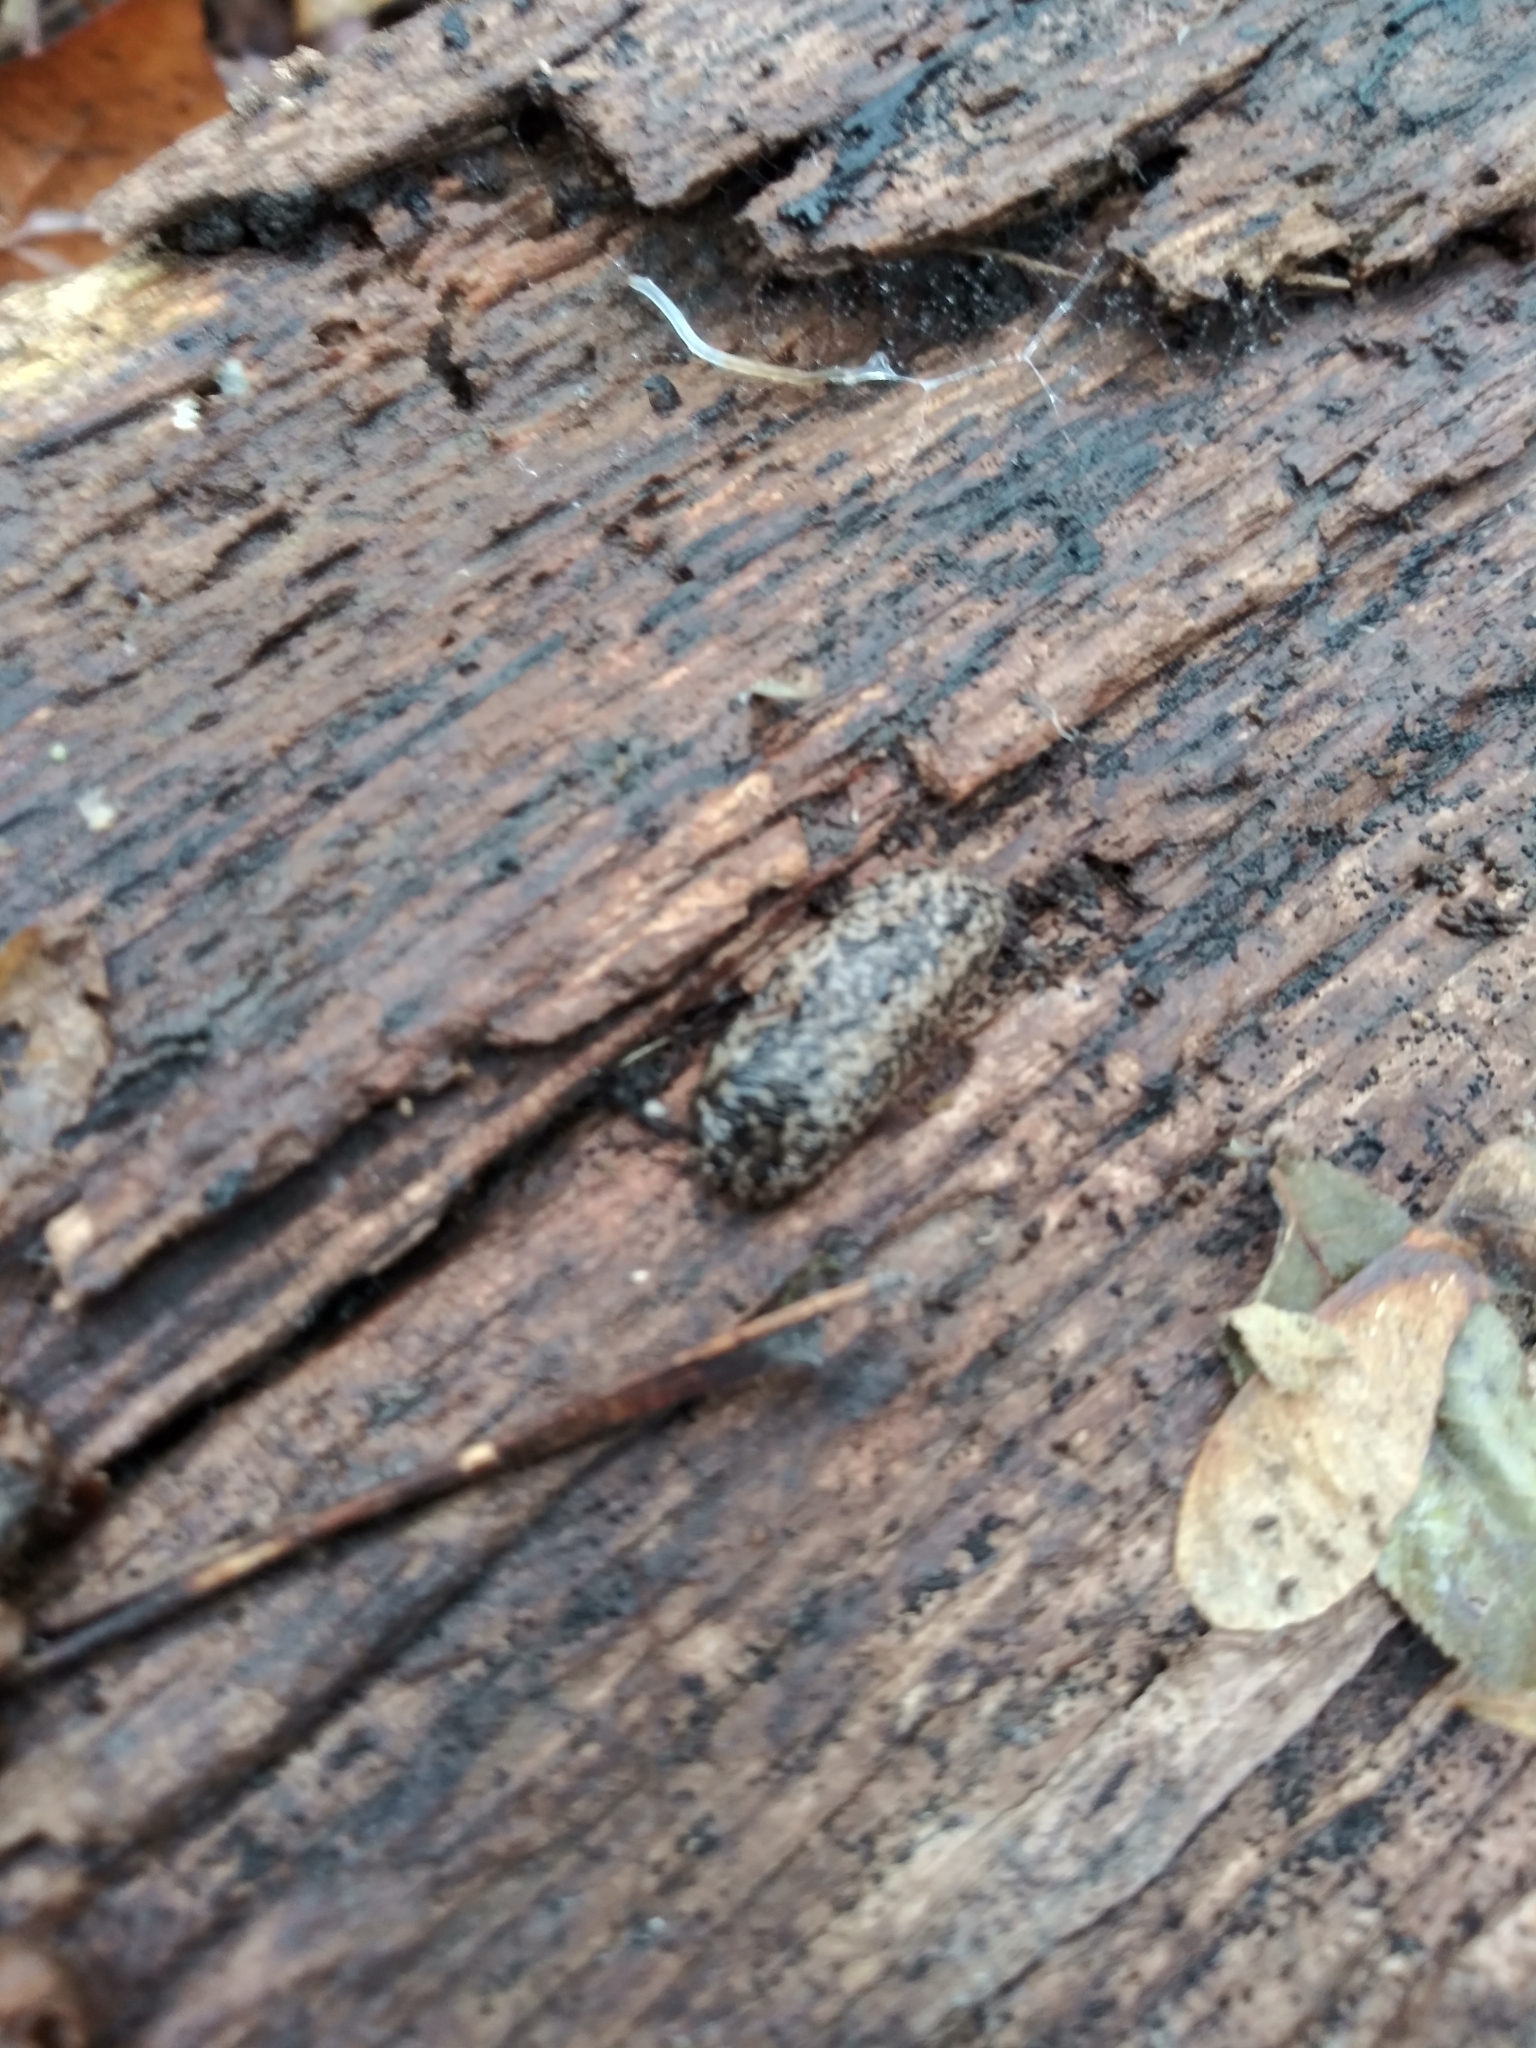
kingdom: Animalia
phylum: Mollusca
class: Gastropoda
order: Stylommatophora
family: Philomycidae
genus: Philomycus
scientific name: Philomycus carolinianus
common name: Carolina mantleslug
